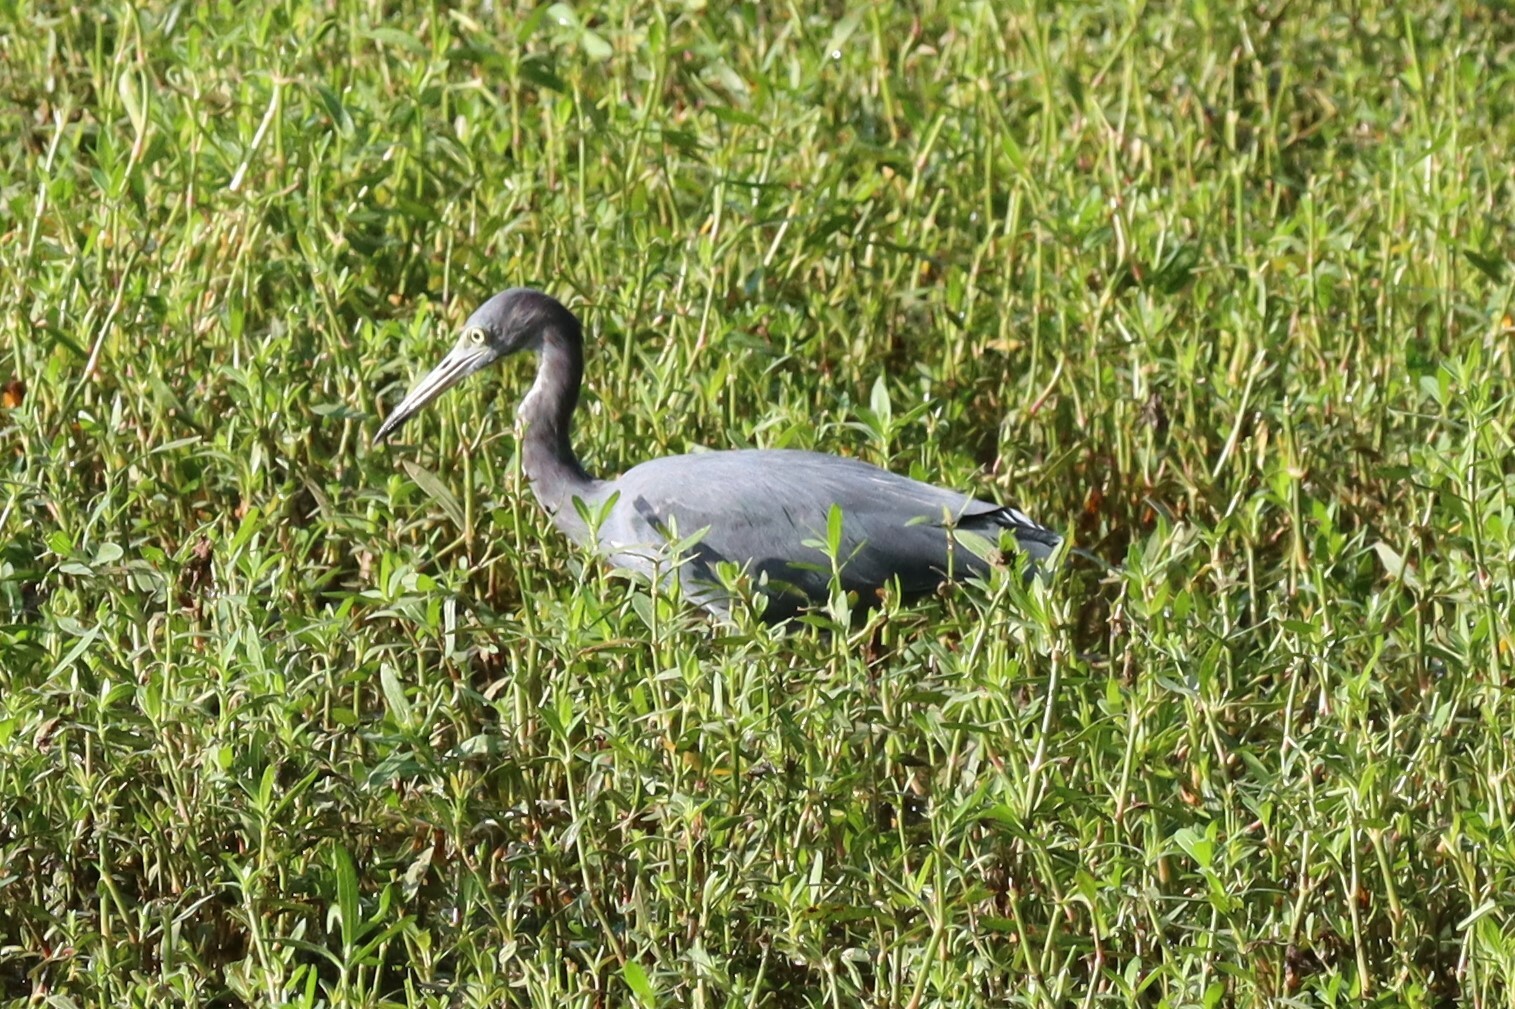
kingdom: Animalia
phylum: Chordata
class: Aves
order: Pelecaniformes
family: Ardeidae
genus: Egretta
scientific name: Egretta caerulea
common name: Little blue heron
